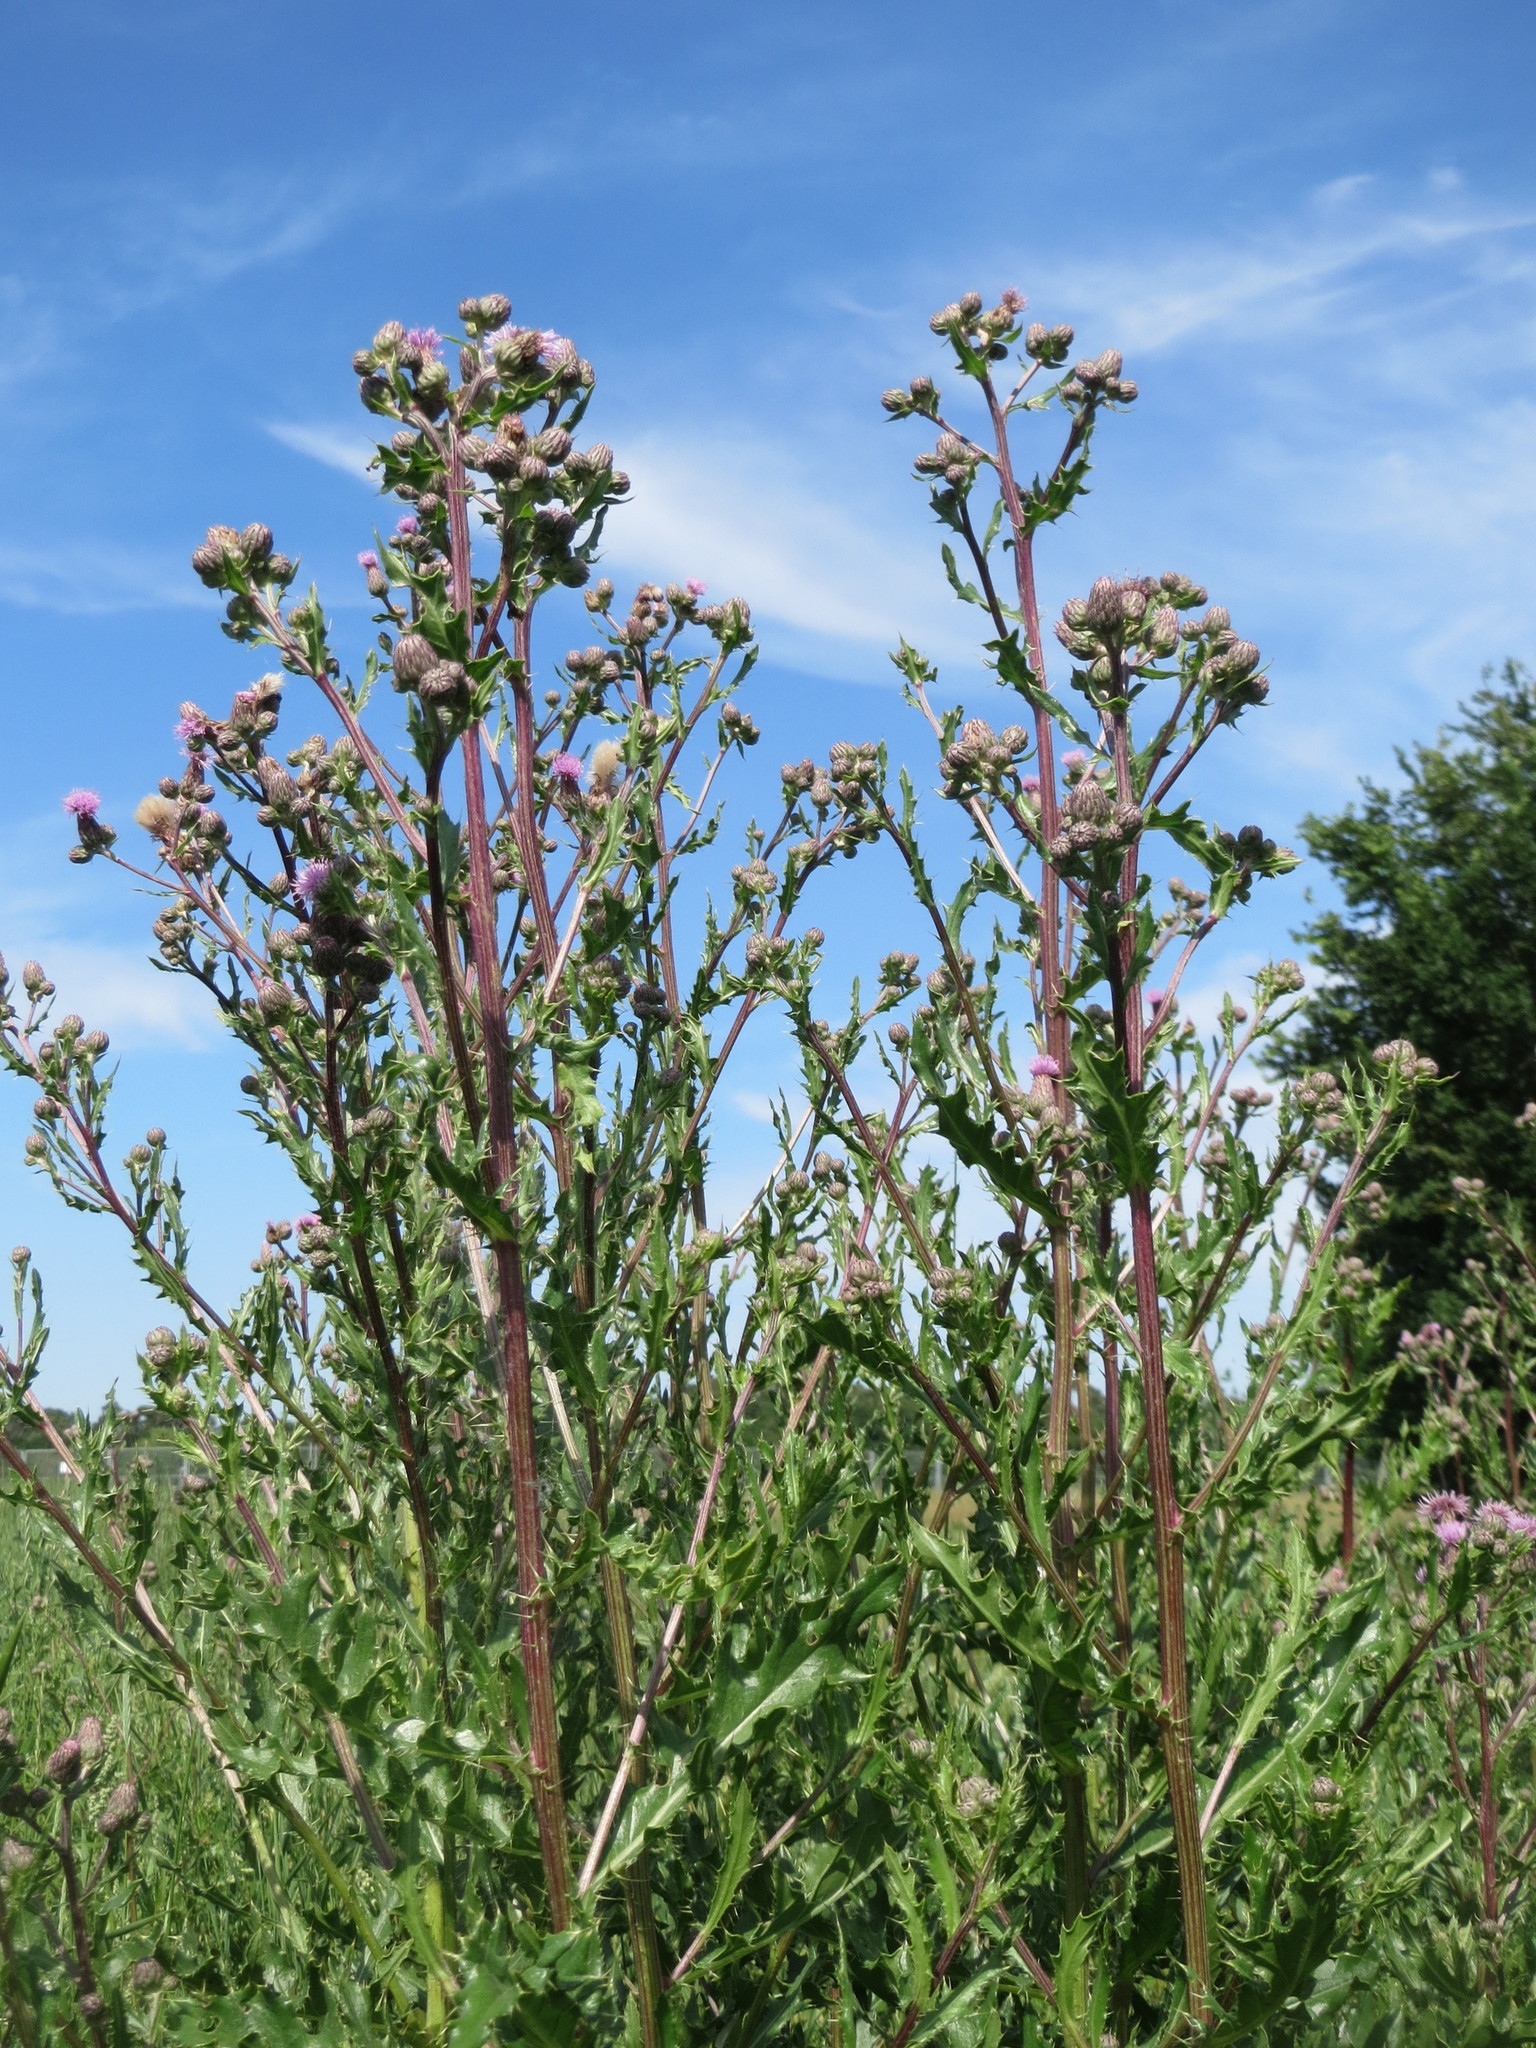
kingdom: Plantae
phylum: Tracheophyta
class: Magnoliopsida
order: Asterales
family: Asteraceae
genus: Cirsium
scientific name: Cirsium arvense
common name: Creeping thistle
